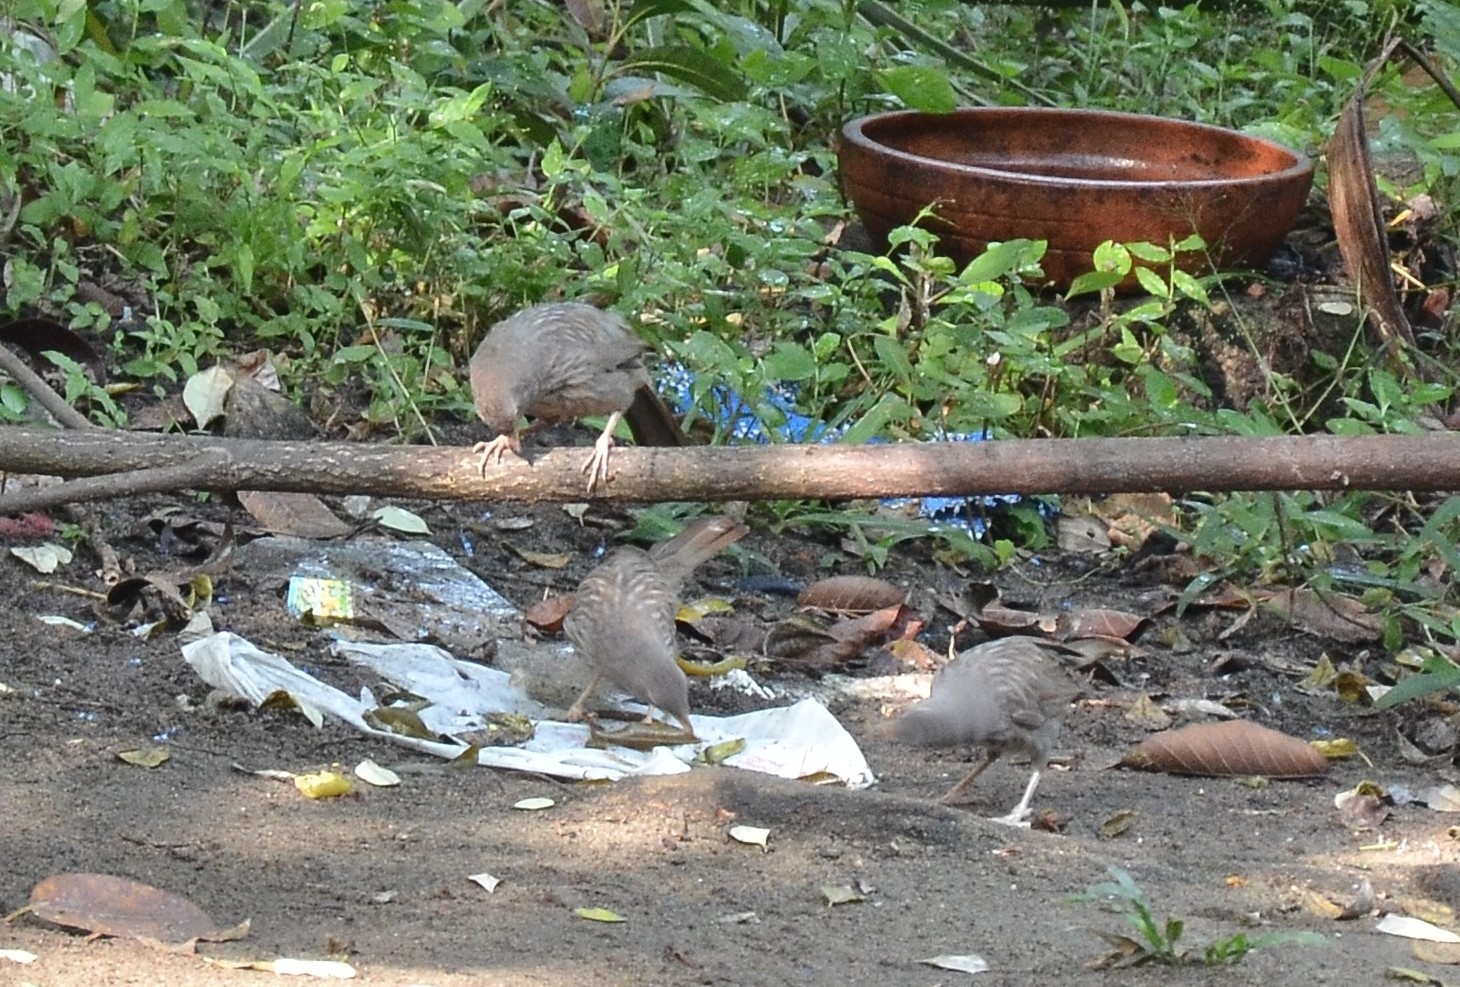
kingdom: Animalia
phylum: Chordata
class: Aves
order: Passeriformes
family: Leiothrichidae
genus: Turdoides
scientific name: Turdoides striata
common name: Jungle babbler
